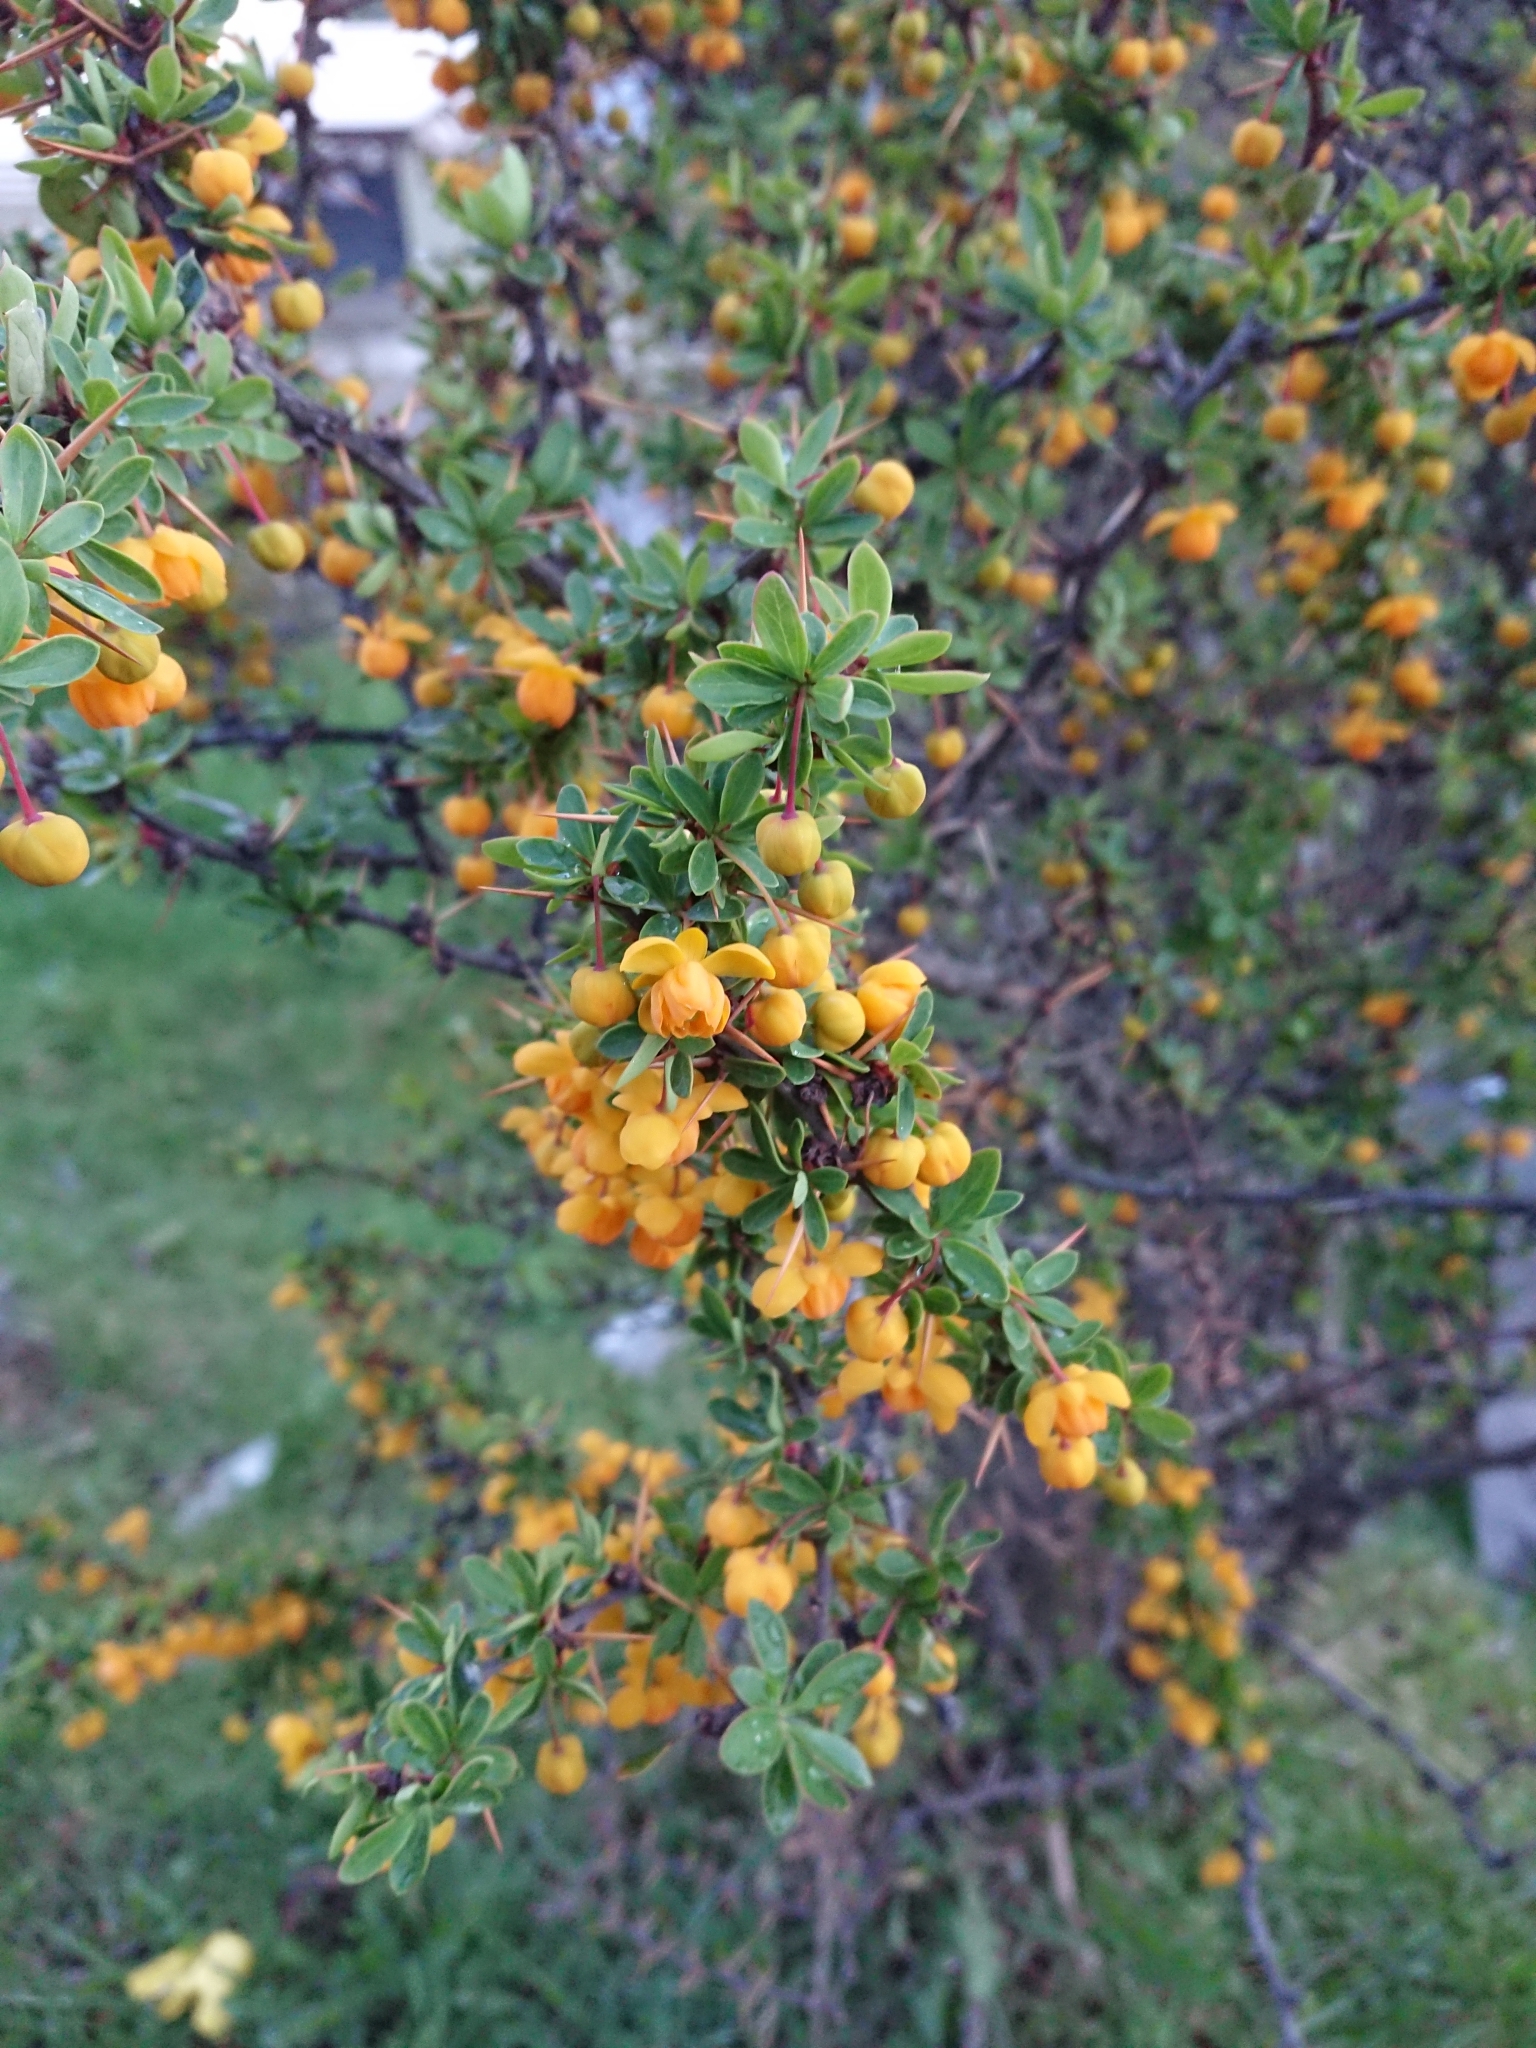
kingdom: Plantae
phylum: Tracheophyta
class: Magnoliopsida
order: Ranunculales
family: Berberidaceae
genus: Berberis
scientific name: Berberis microphylla
